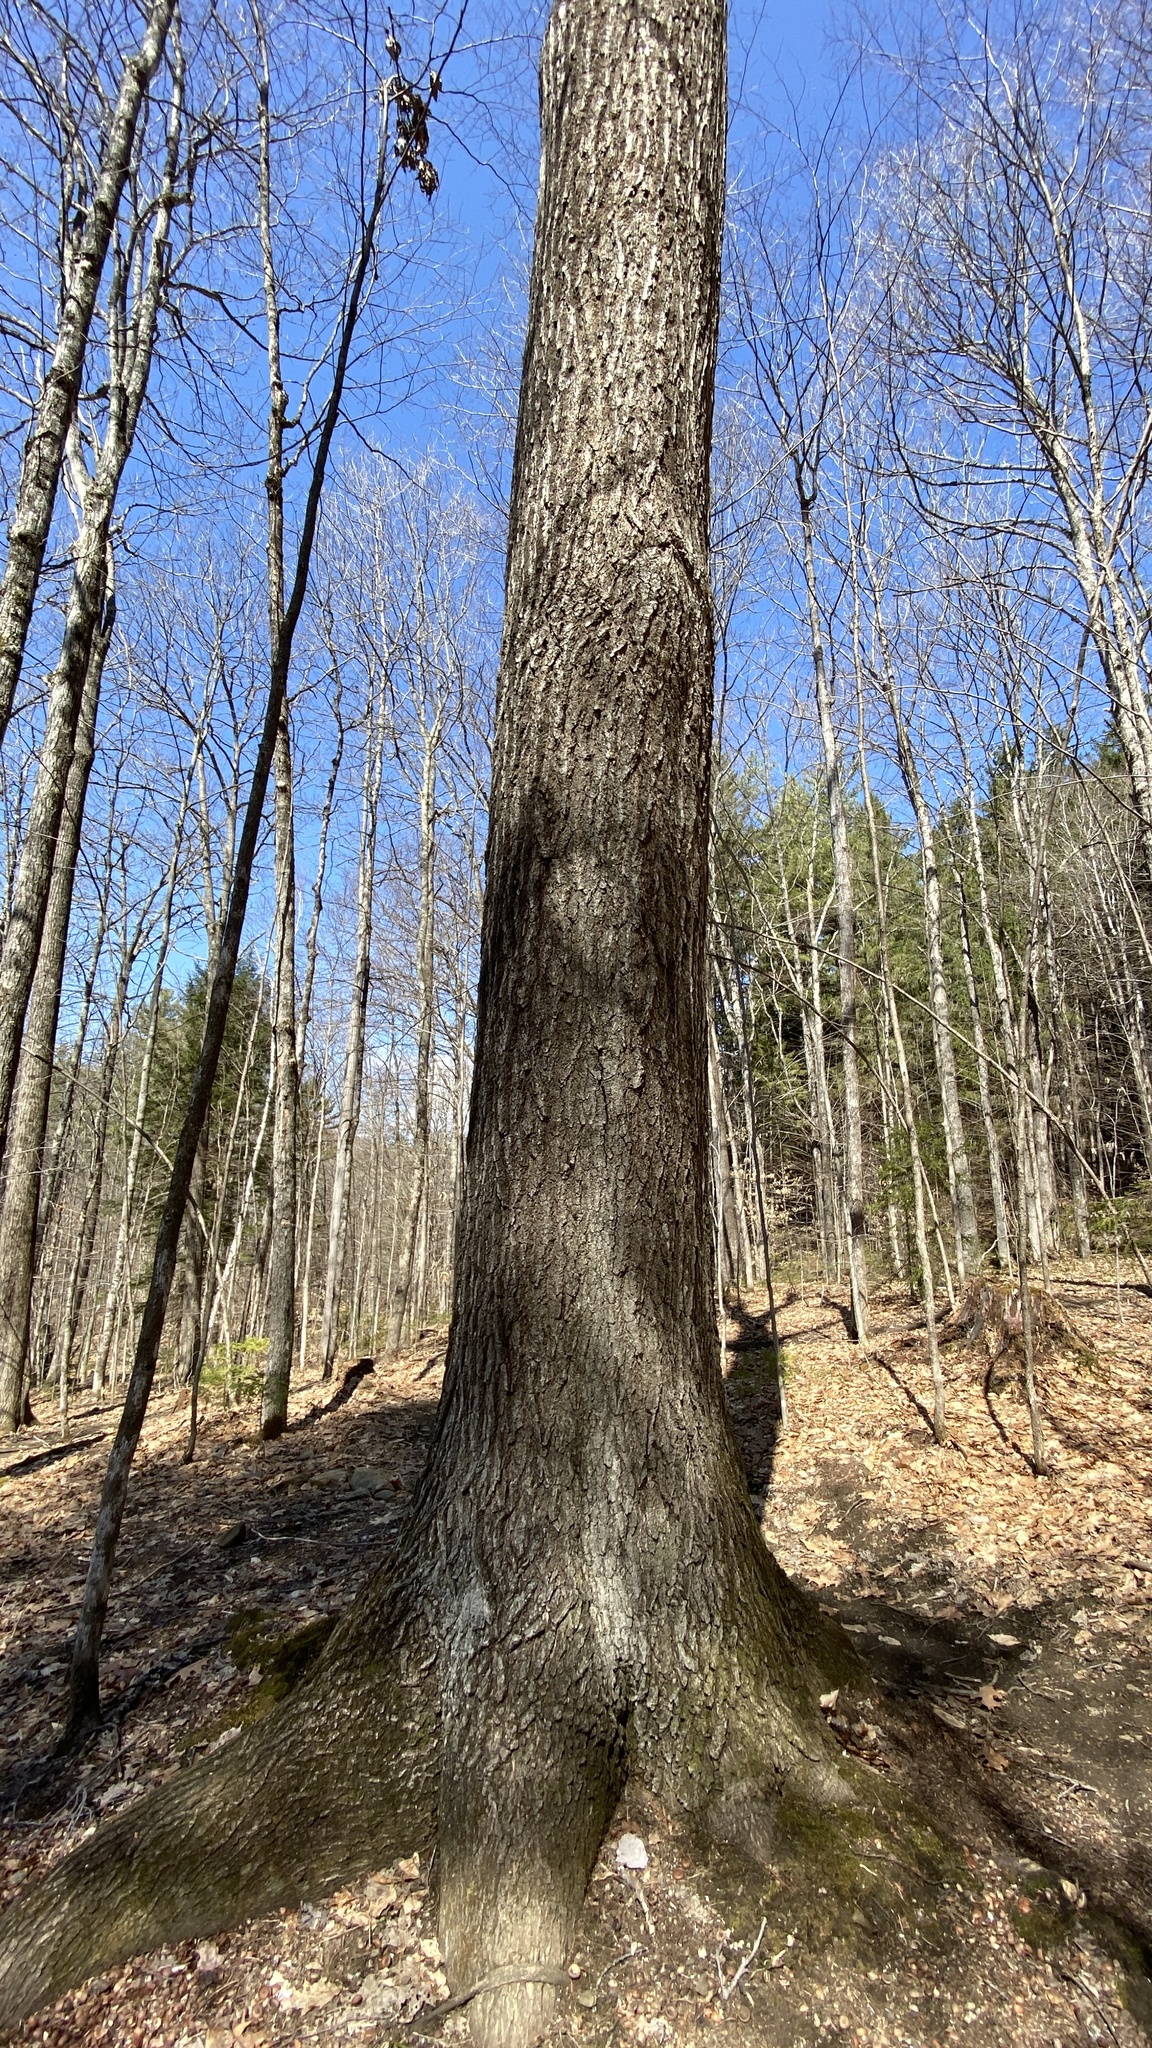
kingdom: Plantae
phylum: Tracheophyta
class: Magnoliopsida
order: Fagales
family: Fagaceae
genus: Quercus
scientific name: Quercus rubra
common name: Red oak
